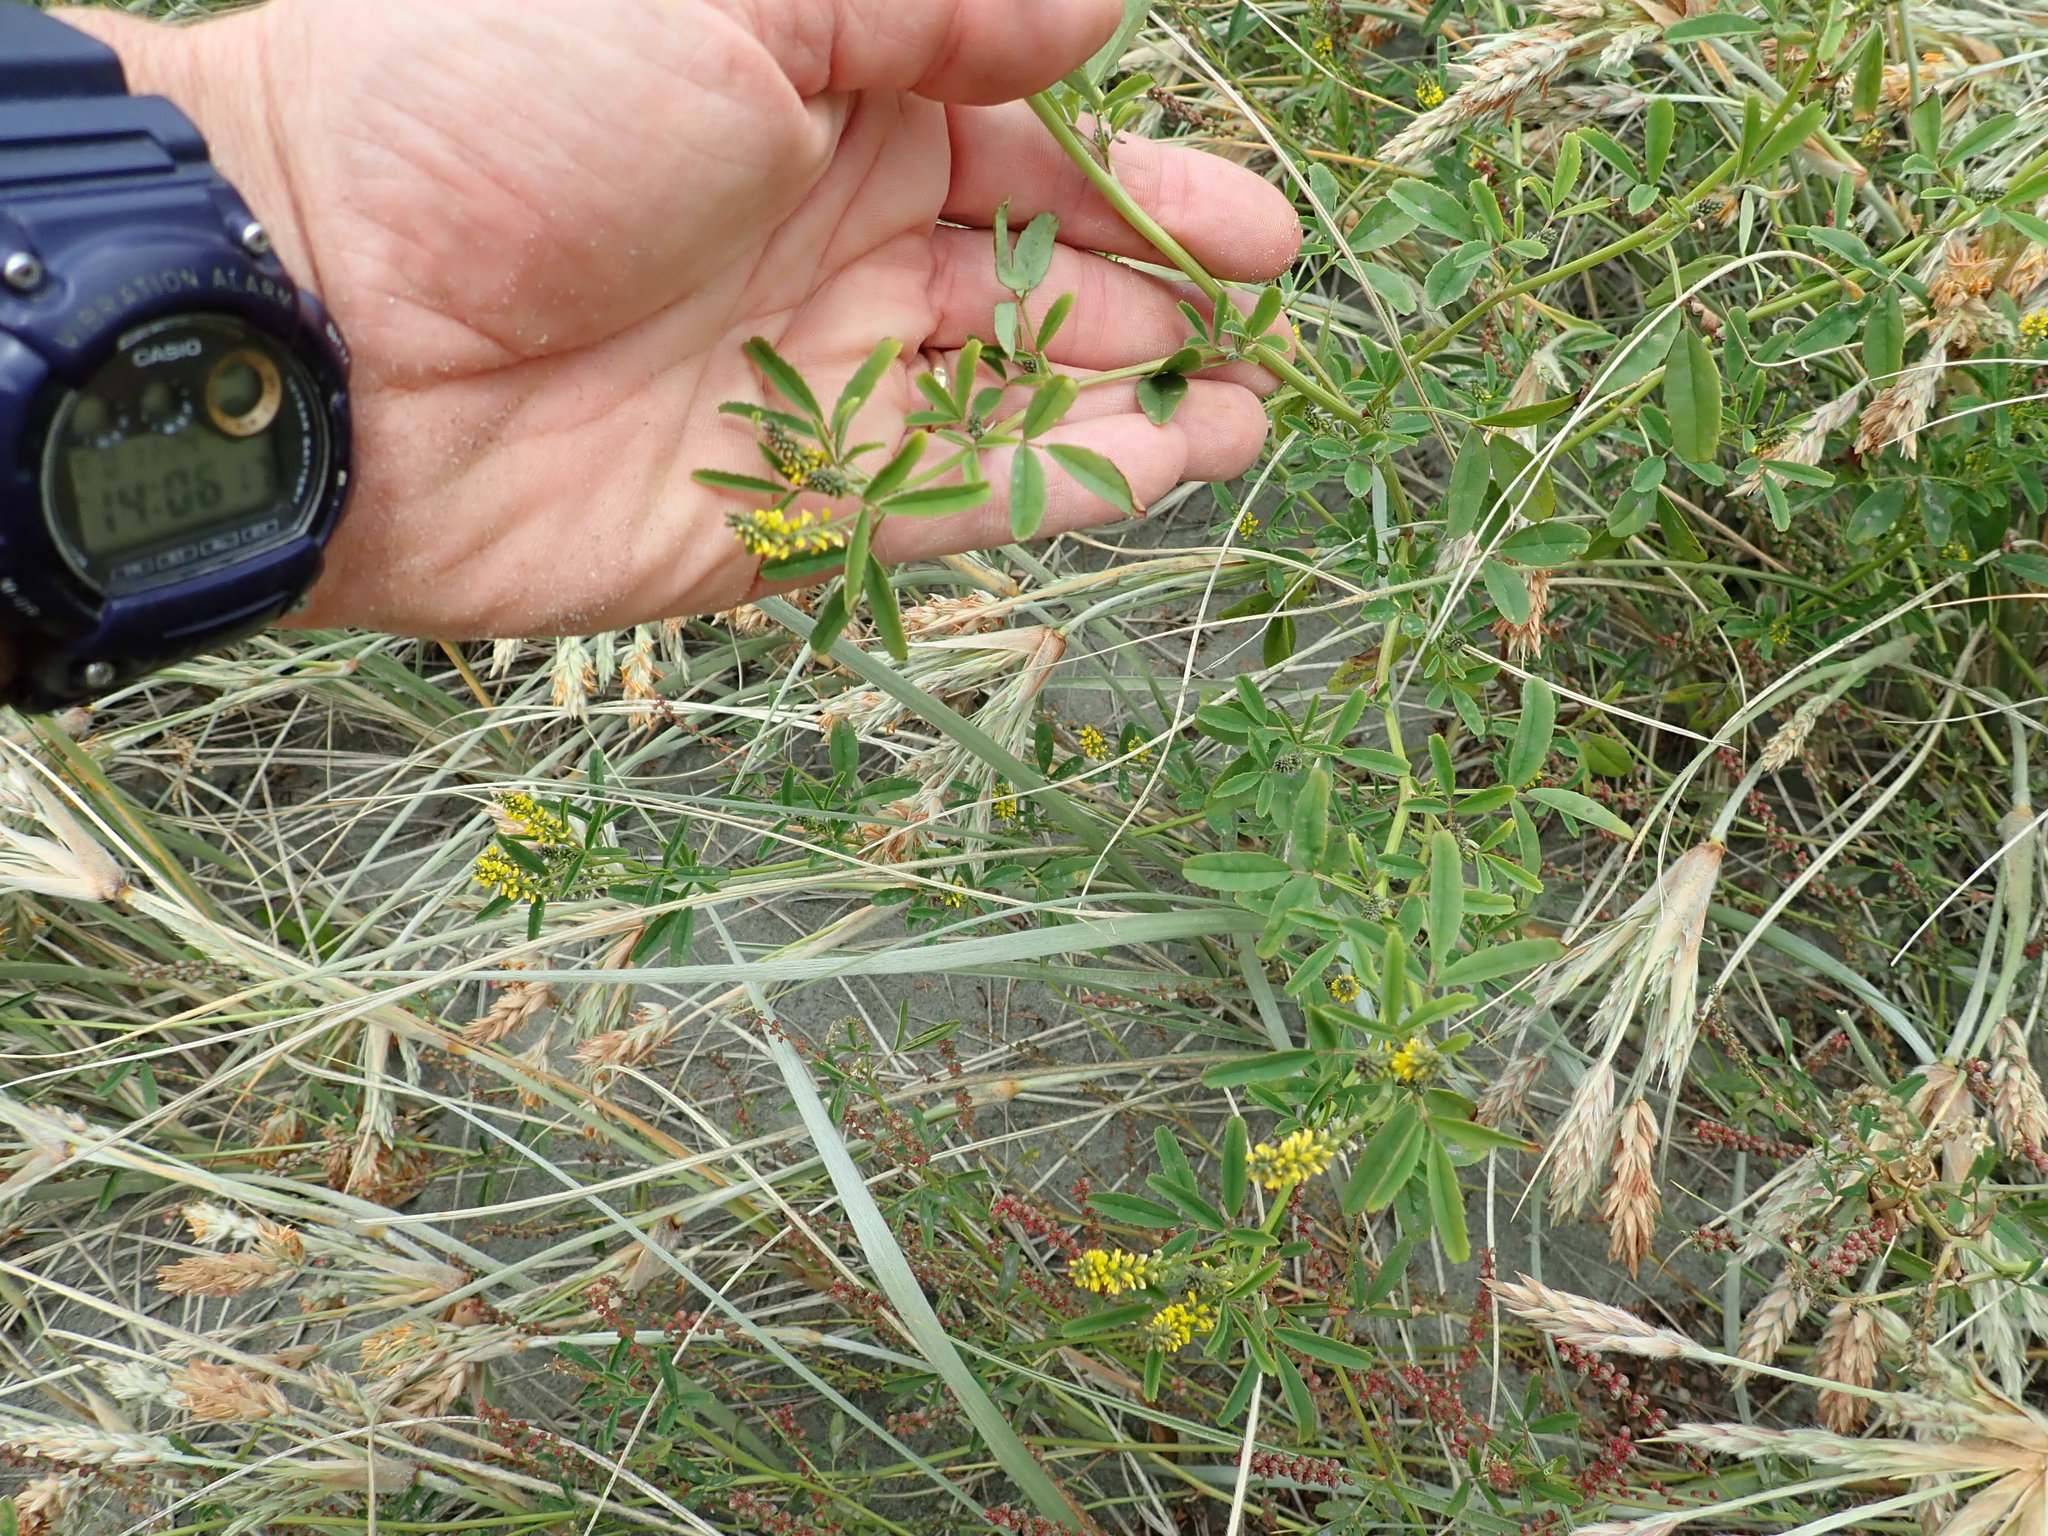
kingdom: Plantae
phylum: Tracheophyta
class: Magnoliopsida
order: Fabales
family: Fabaceae
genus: Melilotus
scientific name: Melilotus indicus
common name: Small melilot
